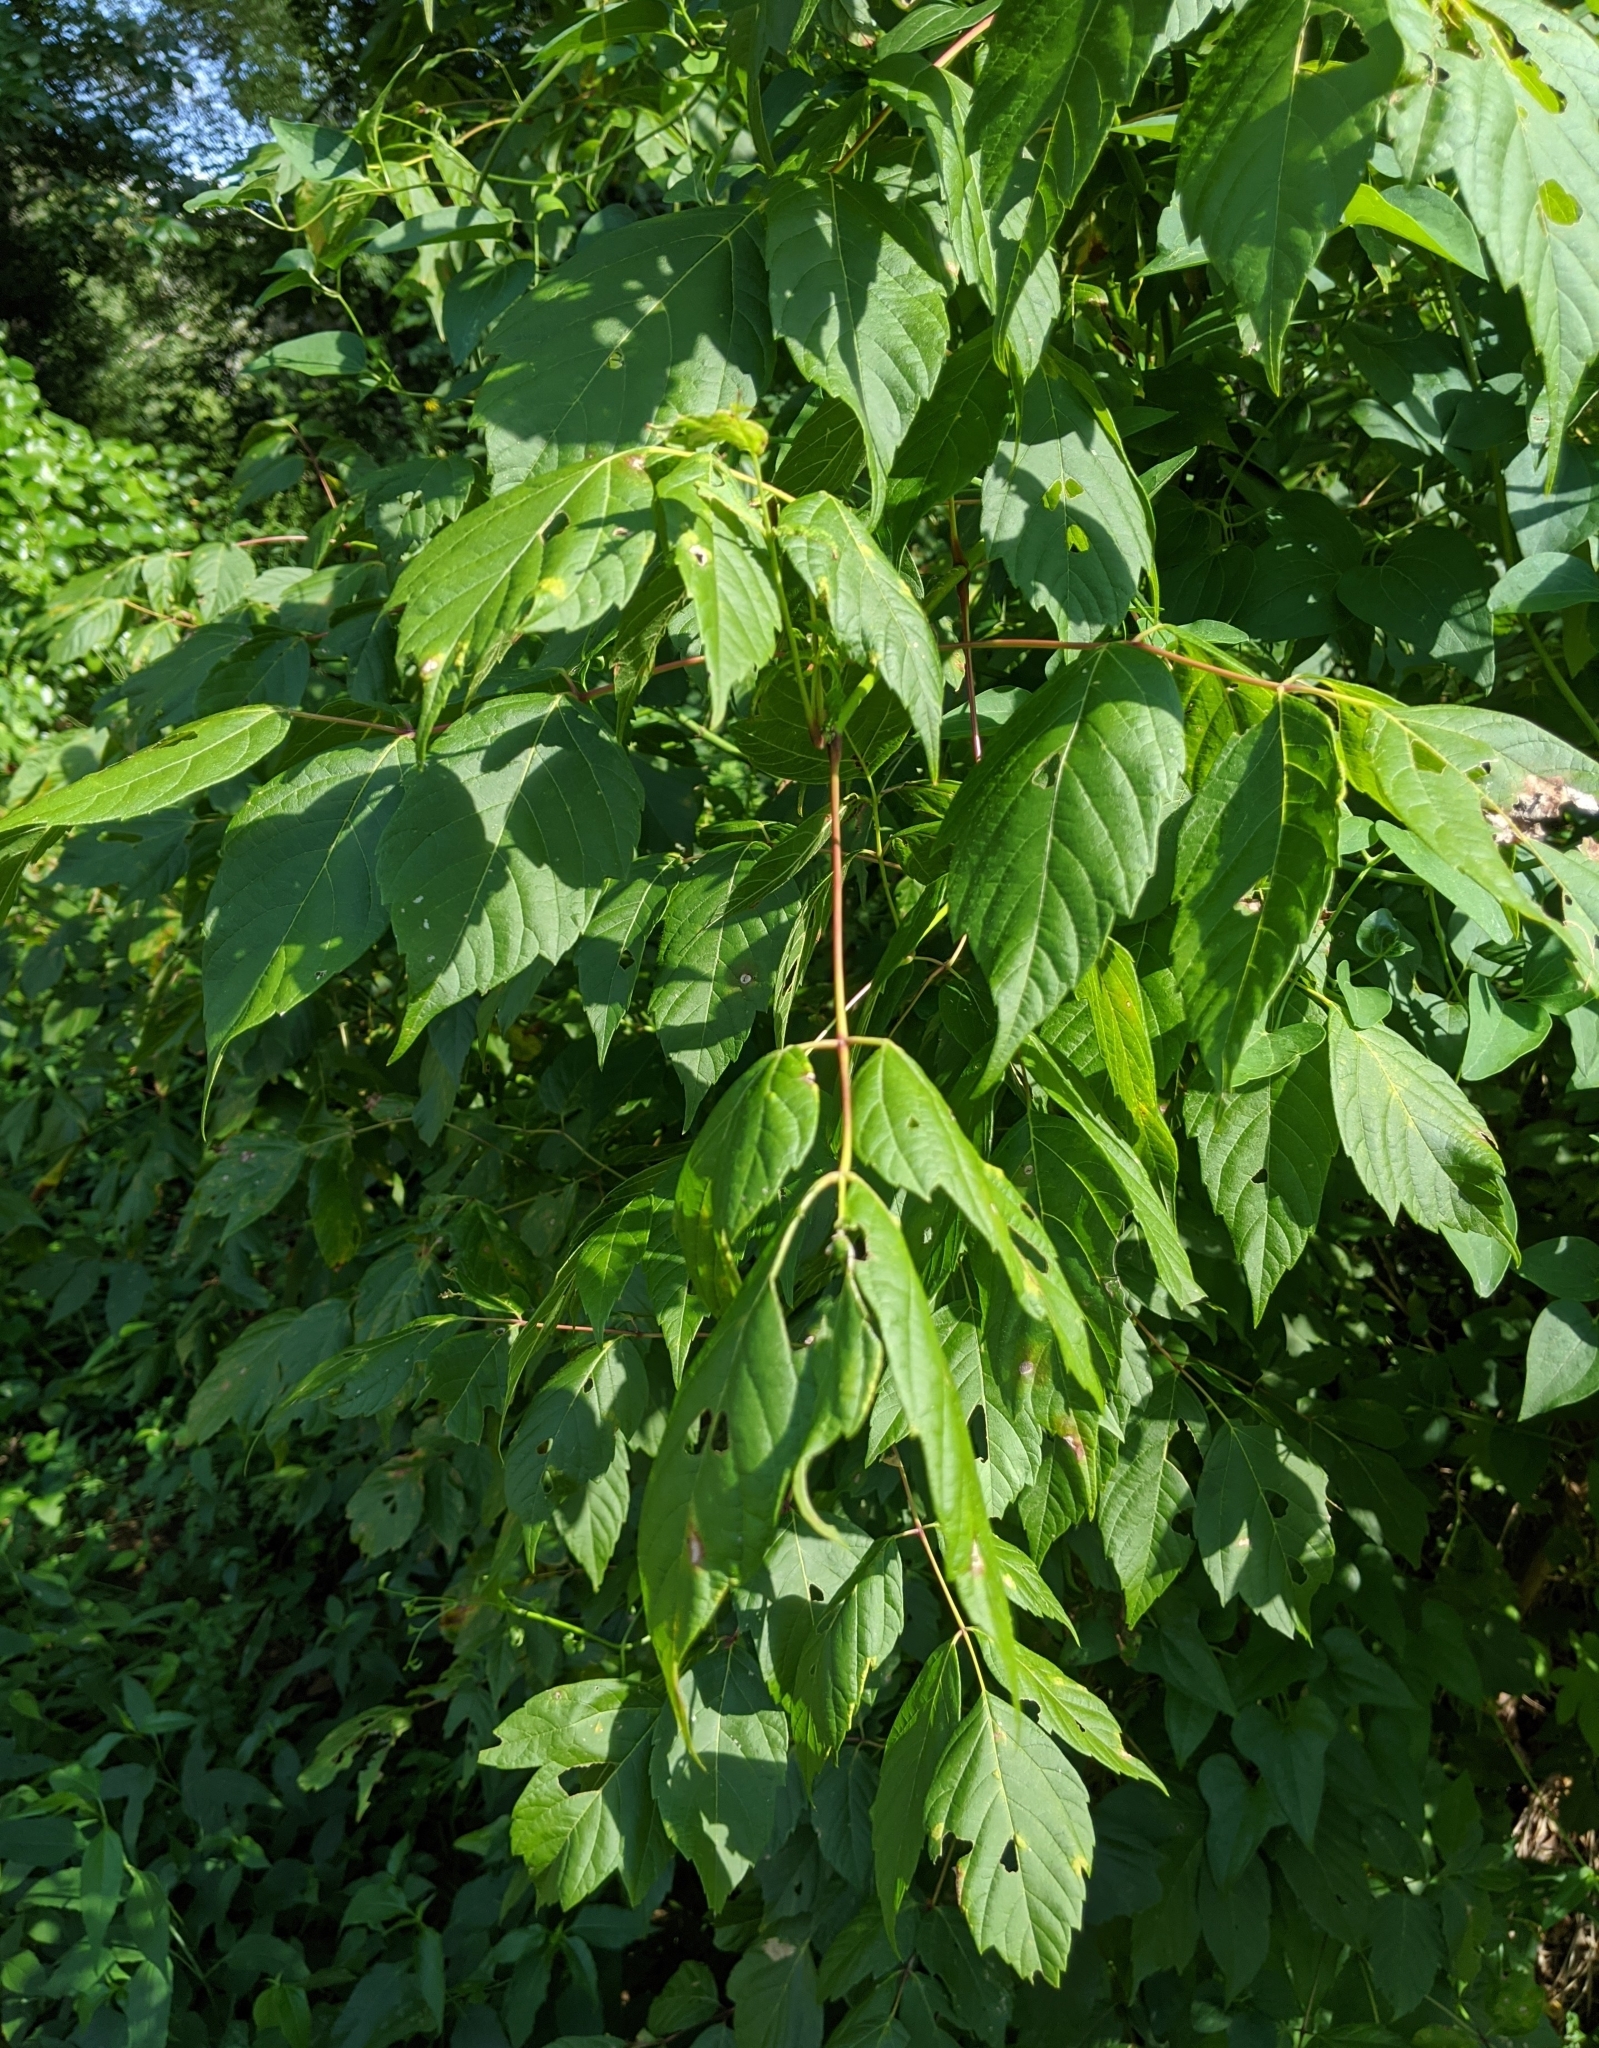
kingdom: Plantae
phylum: Tracheophyta
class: Magnoliopsida
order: Sapindales
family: Sapindaceae
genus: Acer
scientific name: Acer negundo
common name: Ashleaf maple
